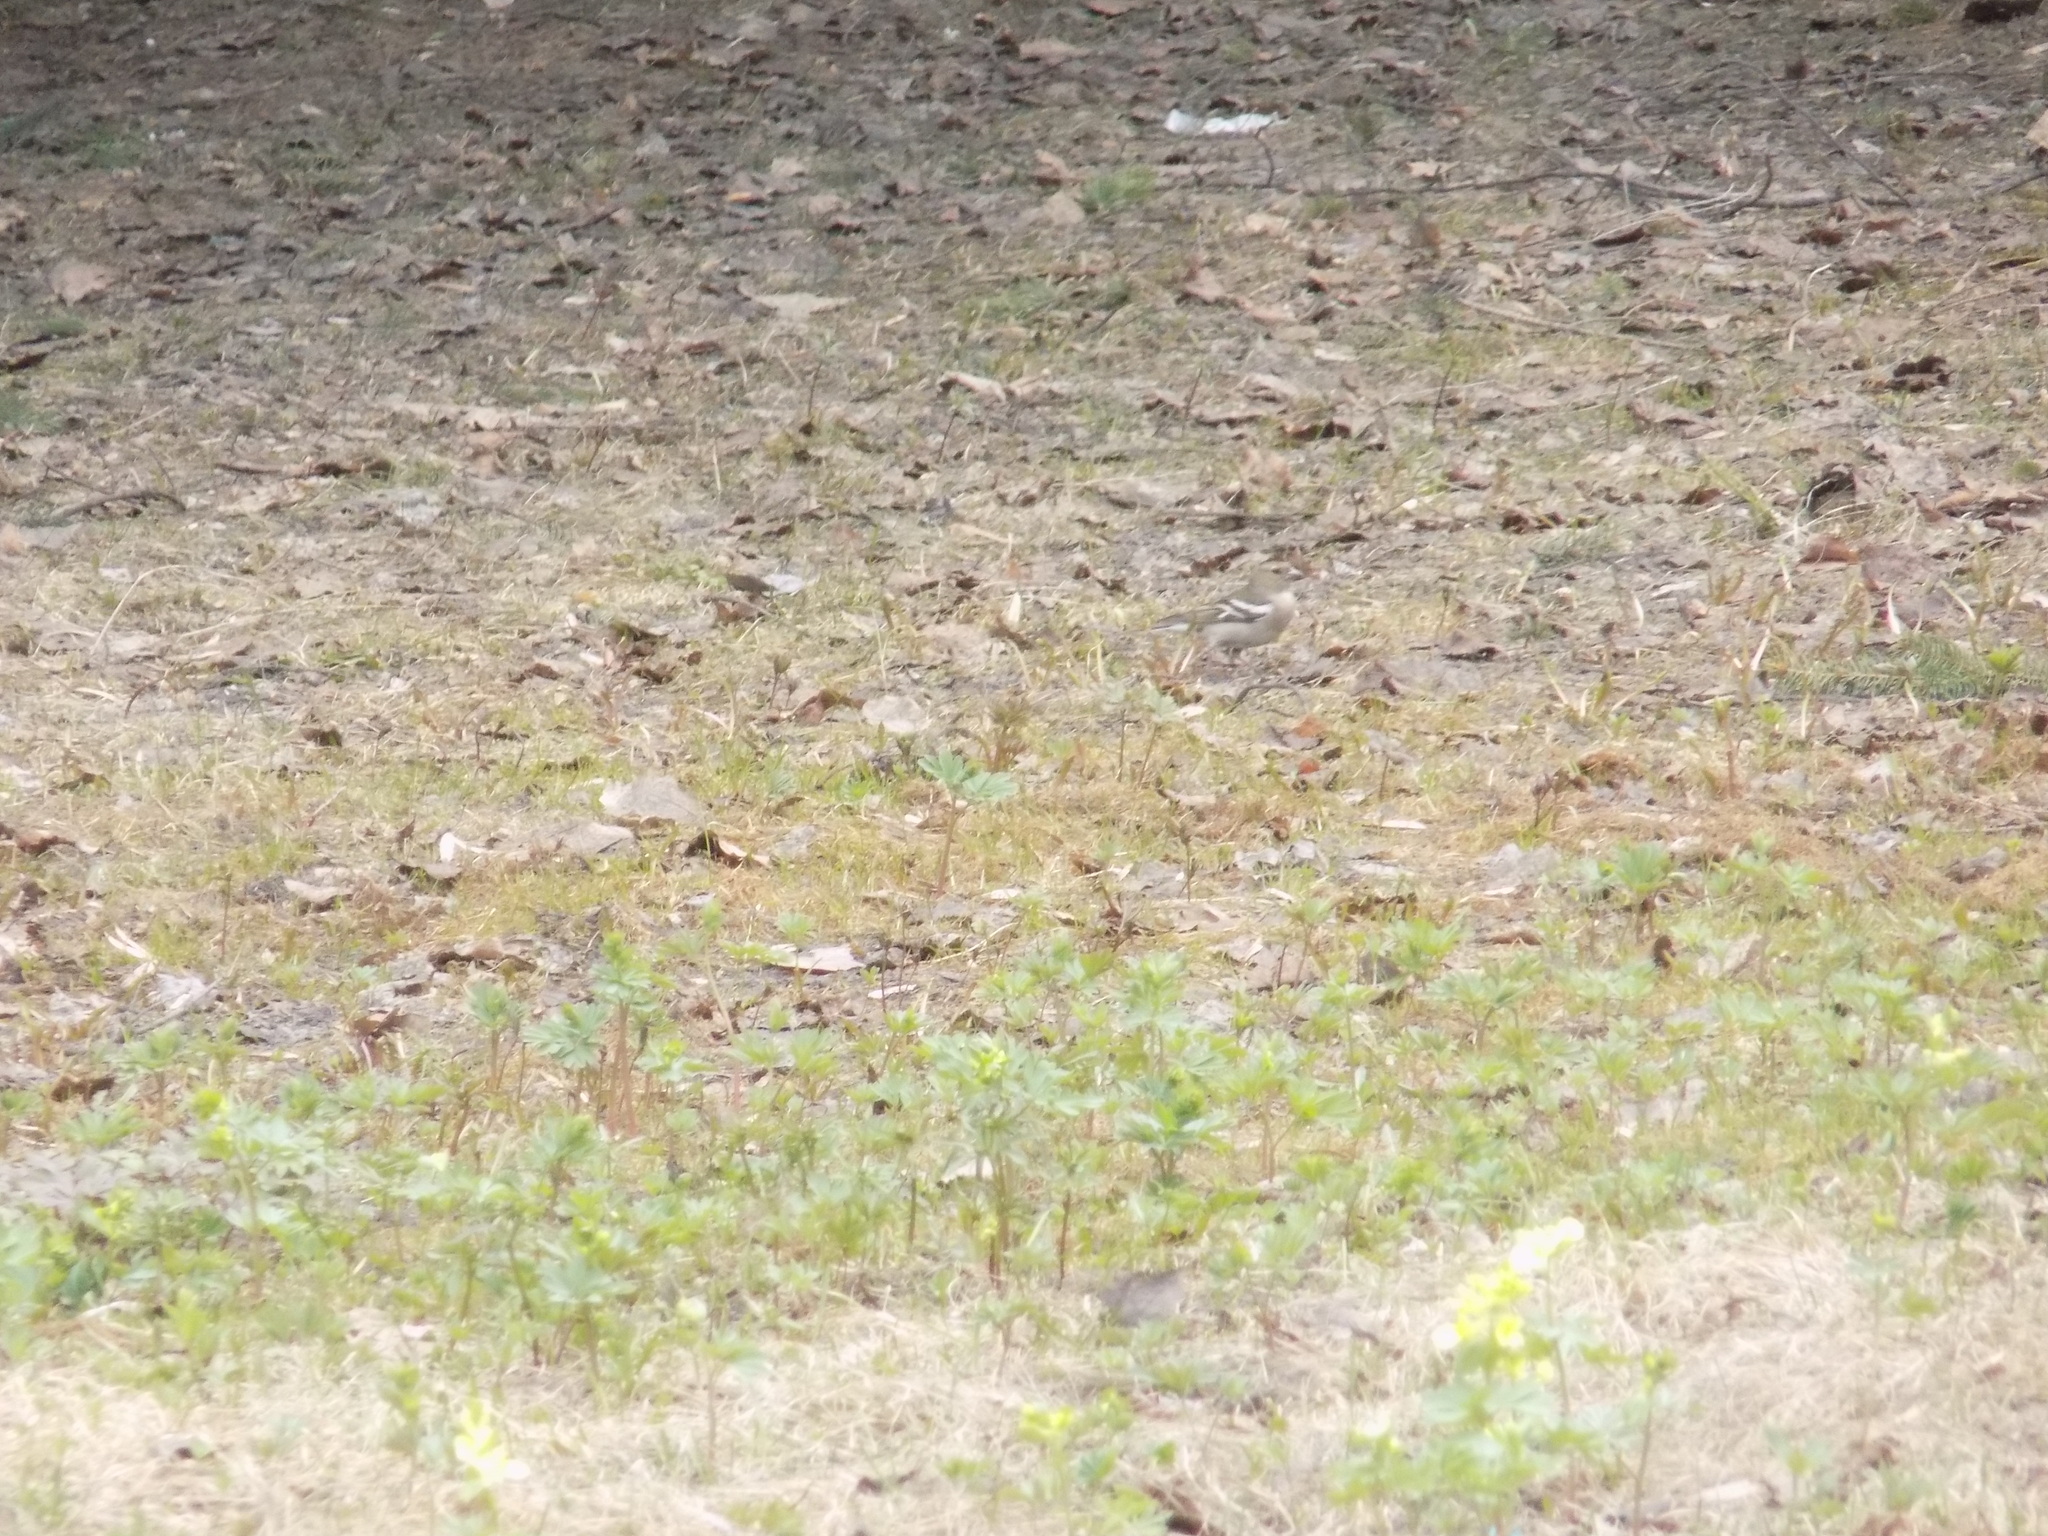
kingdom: Animalia
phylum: Chordata
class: Aves
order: Passeriformes
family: Fringillidae
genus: Fringilla
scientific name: Fringilla coelebs
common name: Common chaffinch
